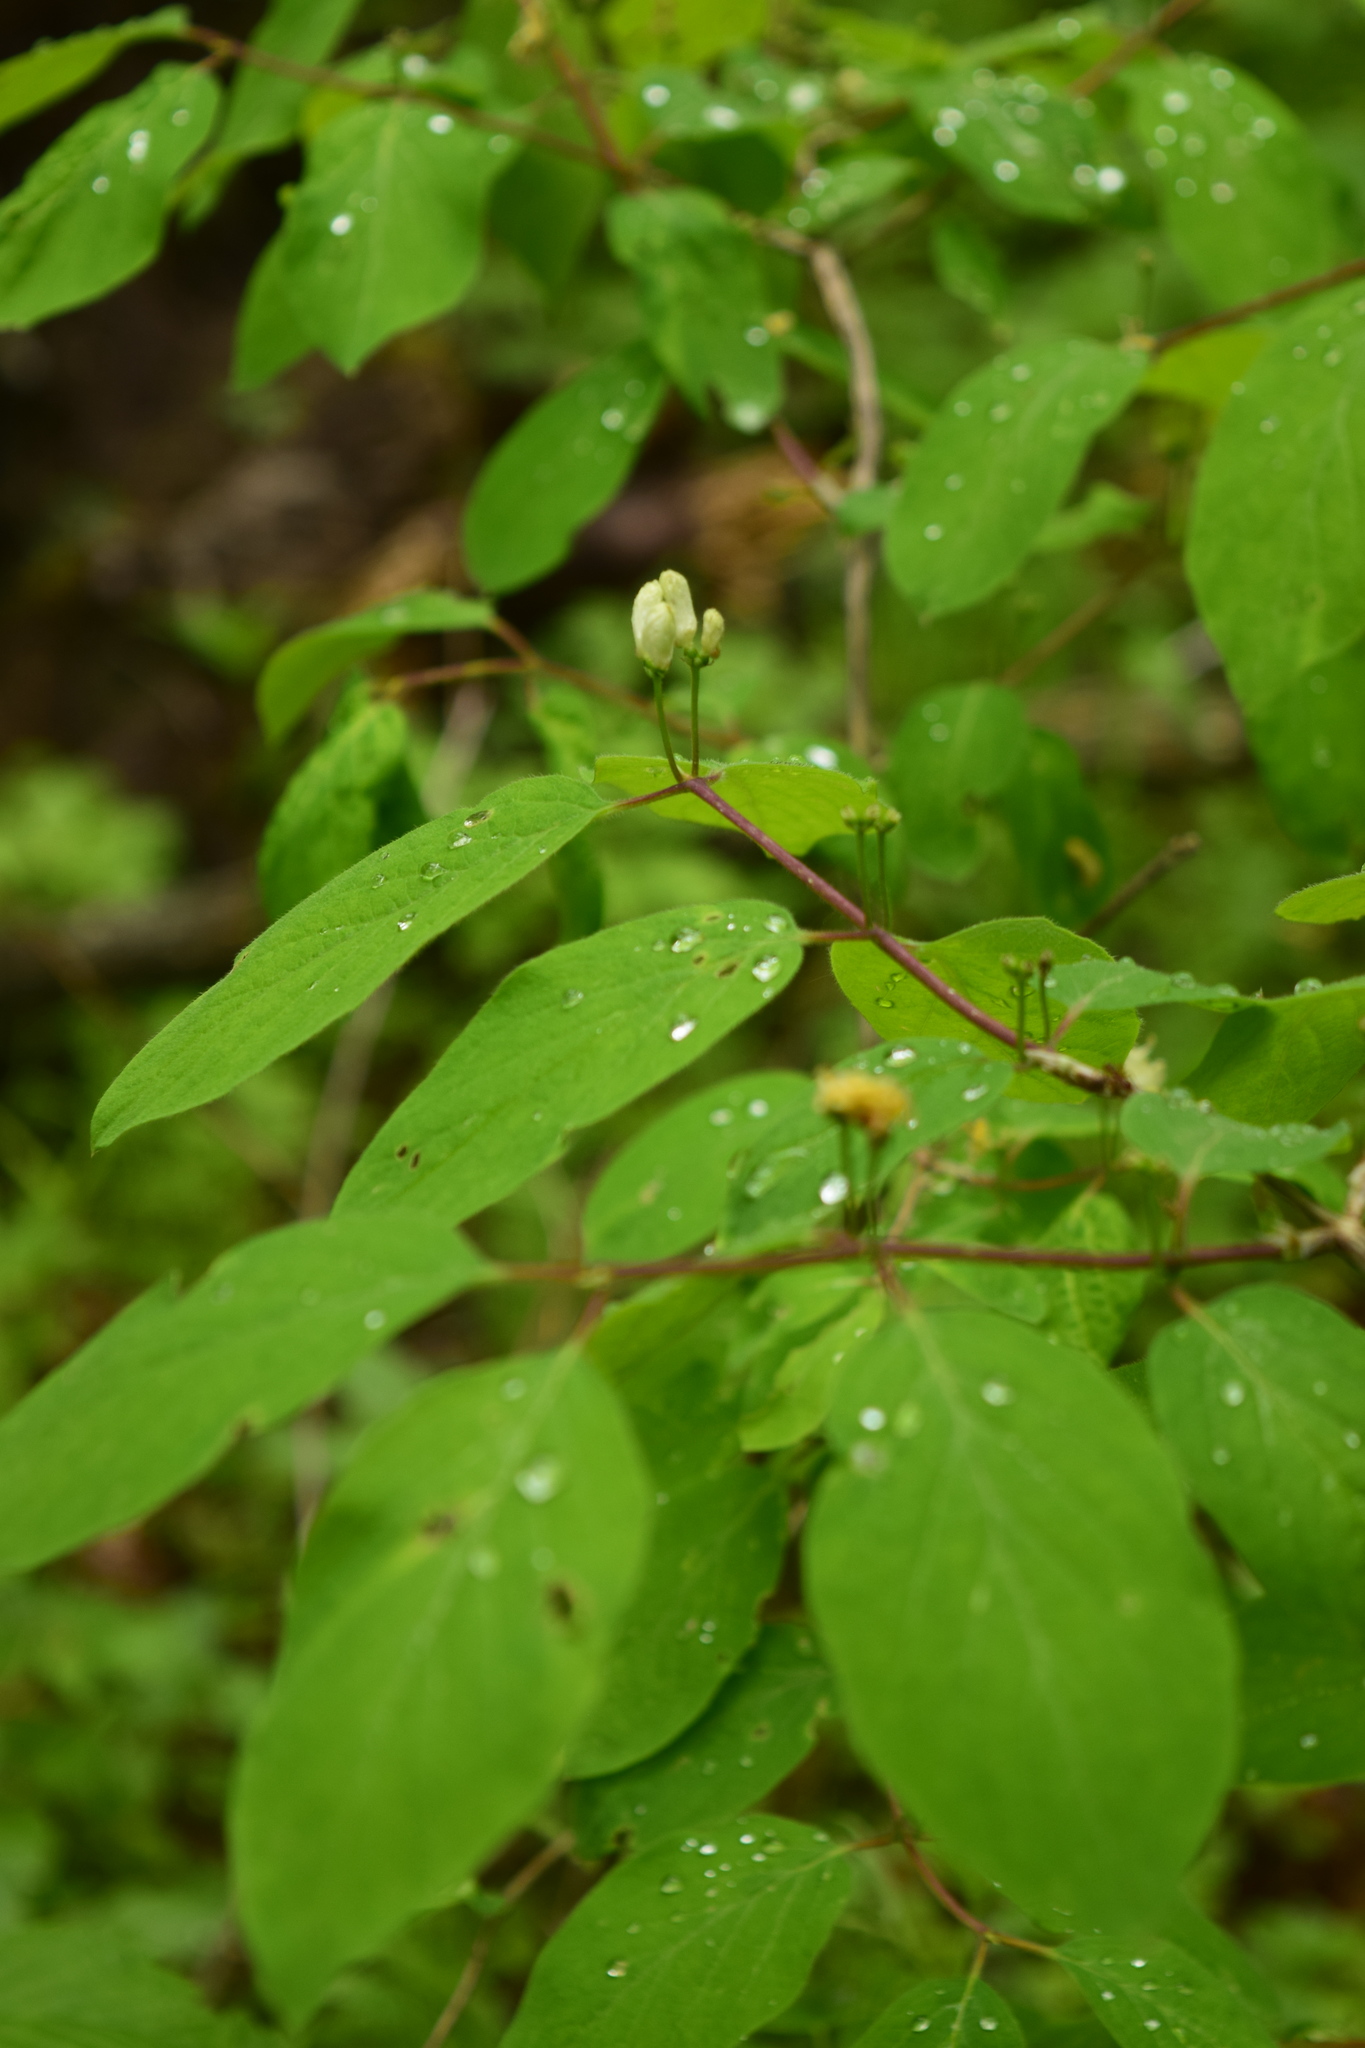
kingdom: Plantae
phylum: Tracheophyta
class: Magnoliopsida
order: Dipsacales
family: Caprifoliaceae
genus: Lonicera
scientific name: Lonicera xylosteum
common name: Fly honeysuckle
